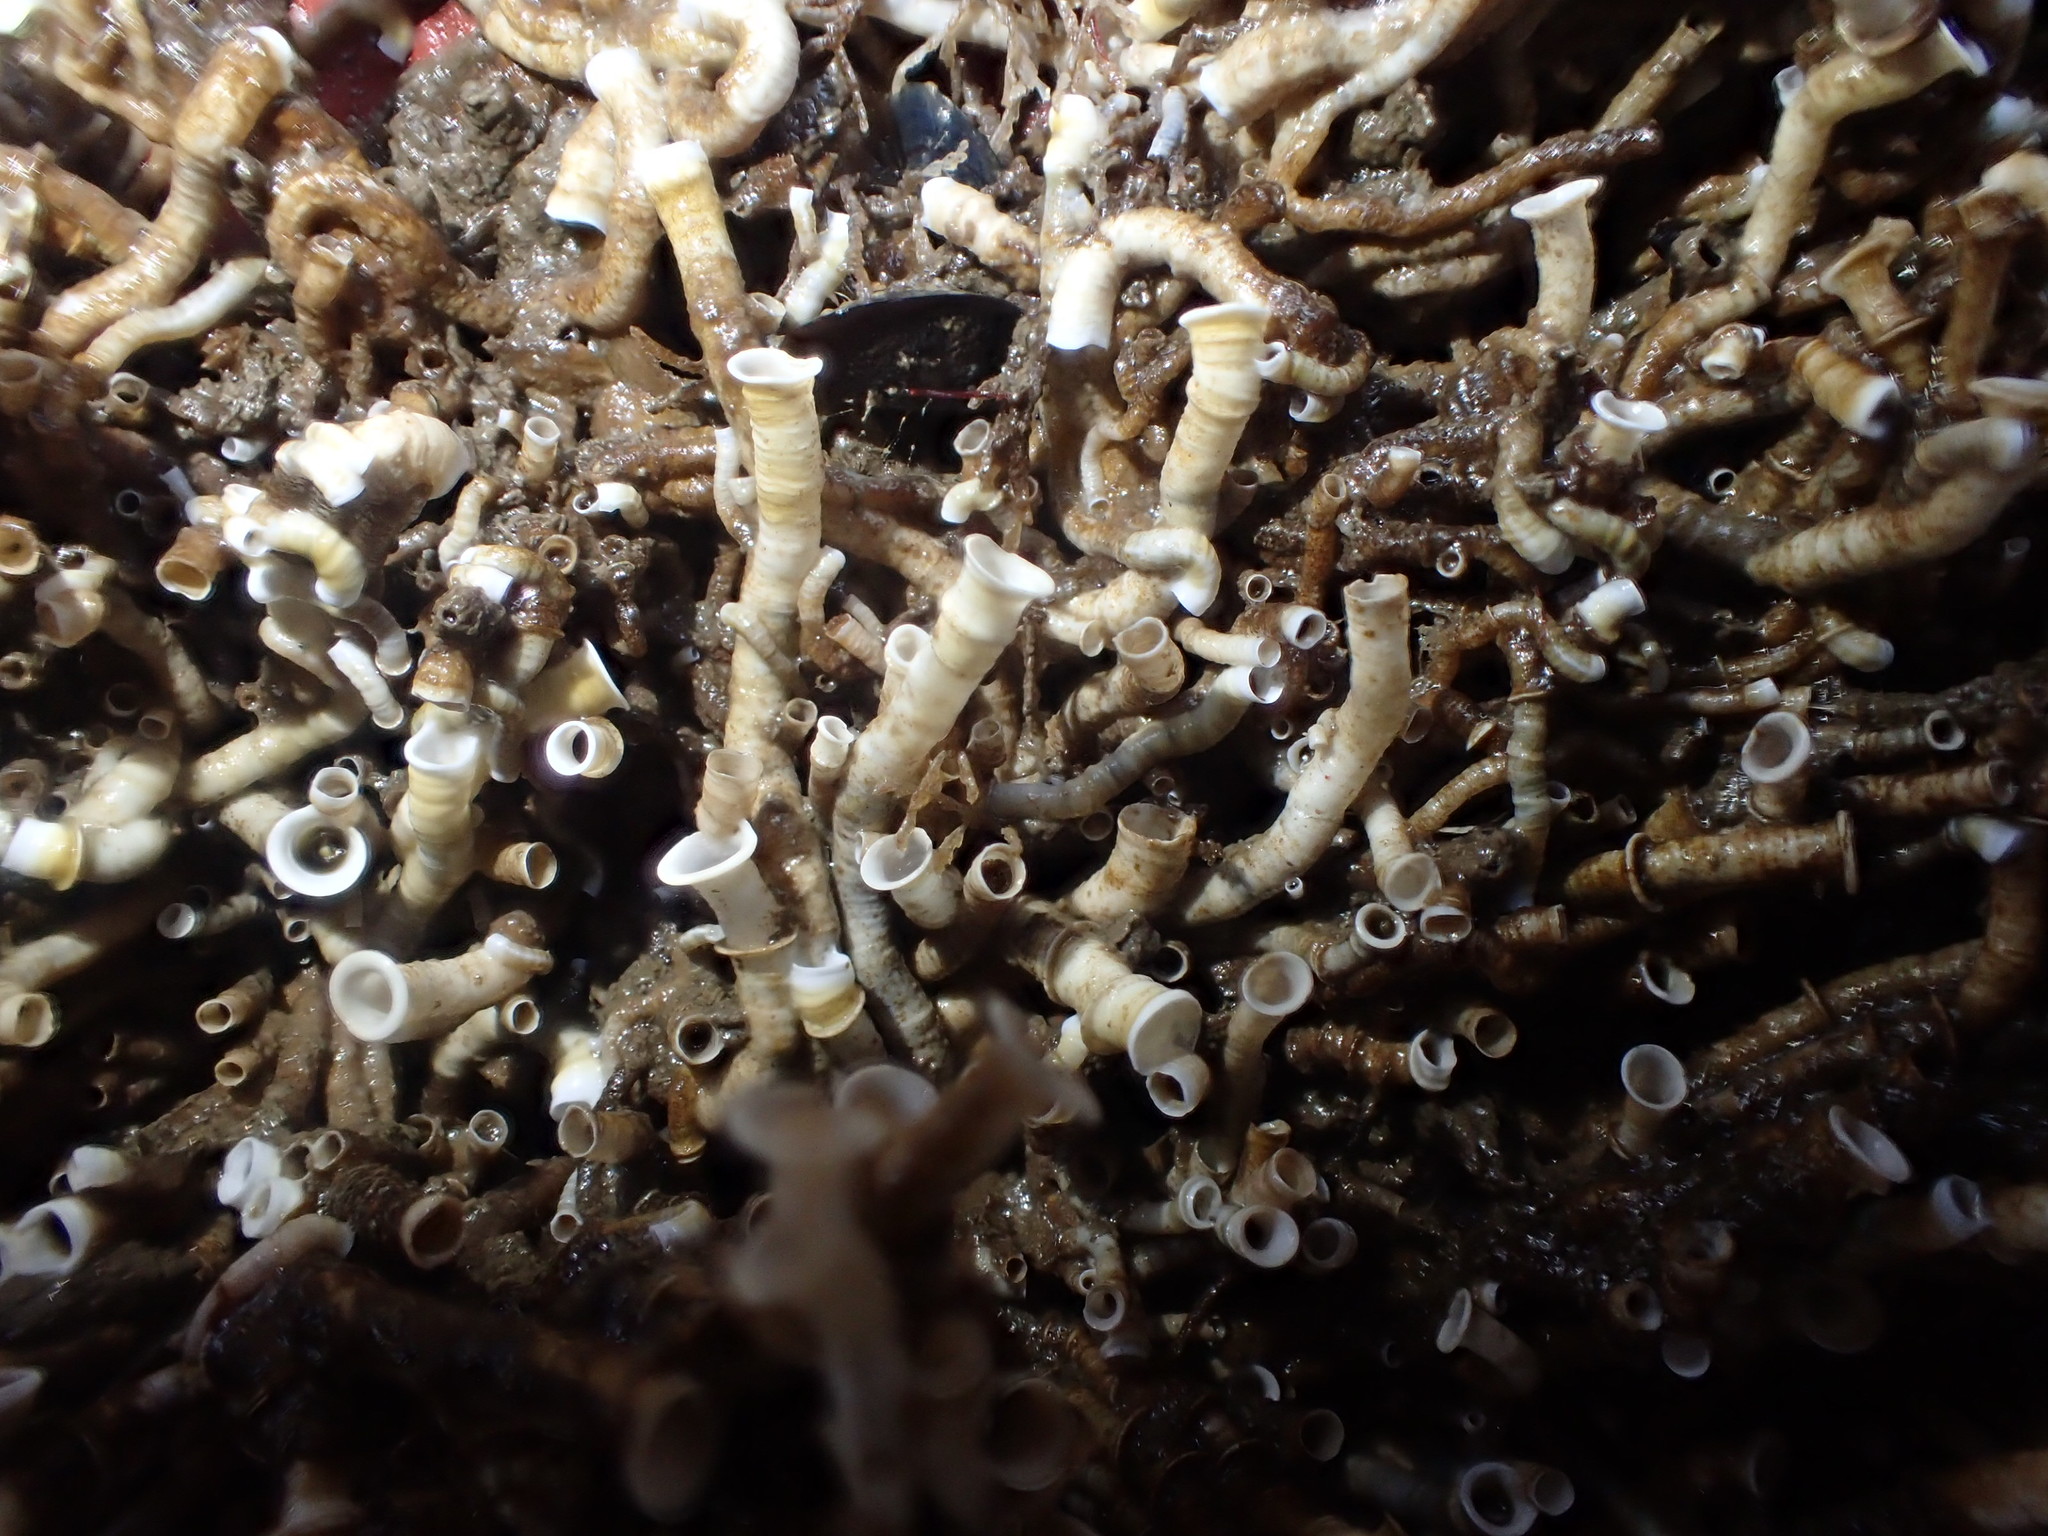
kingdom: Animalia
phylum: Annelida
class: Polychaeta
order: Sabellida
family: Serpulidae
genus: Ficopomatus
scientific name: Ficopomatus enigmaticus
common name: Australian tubeworm
